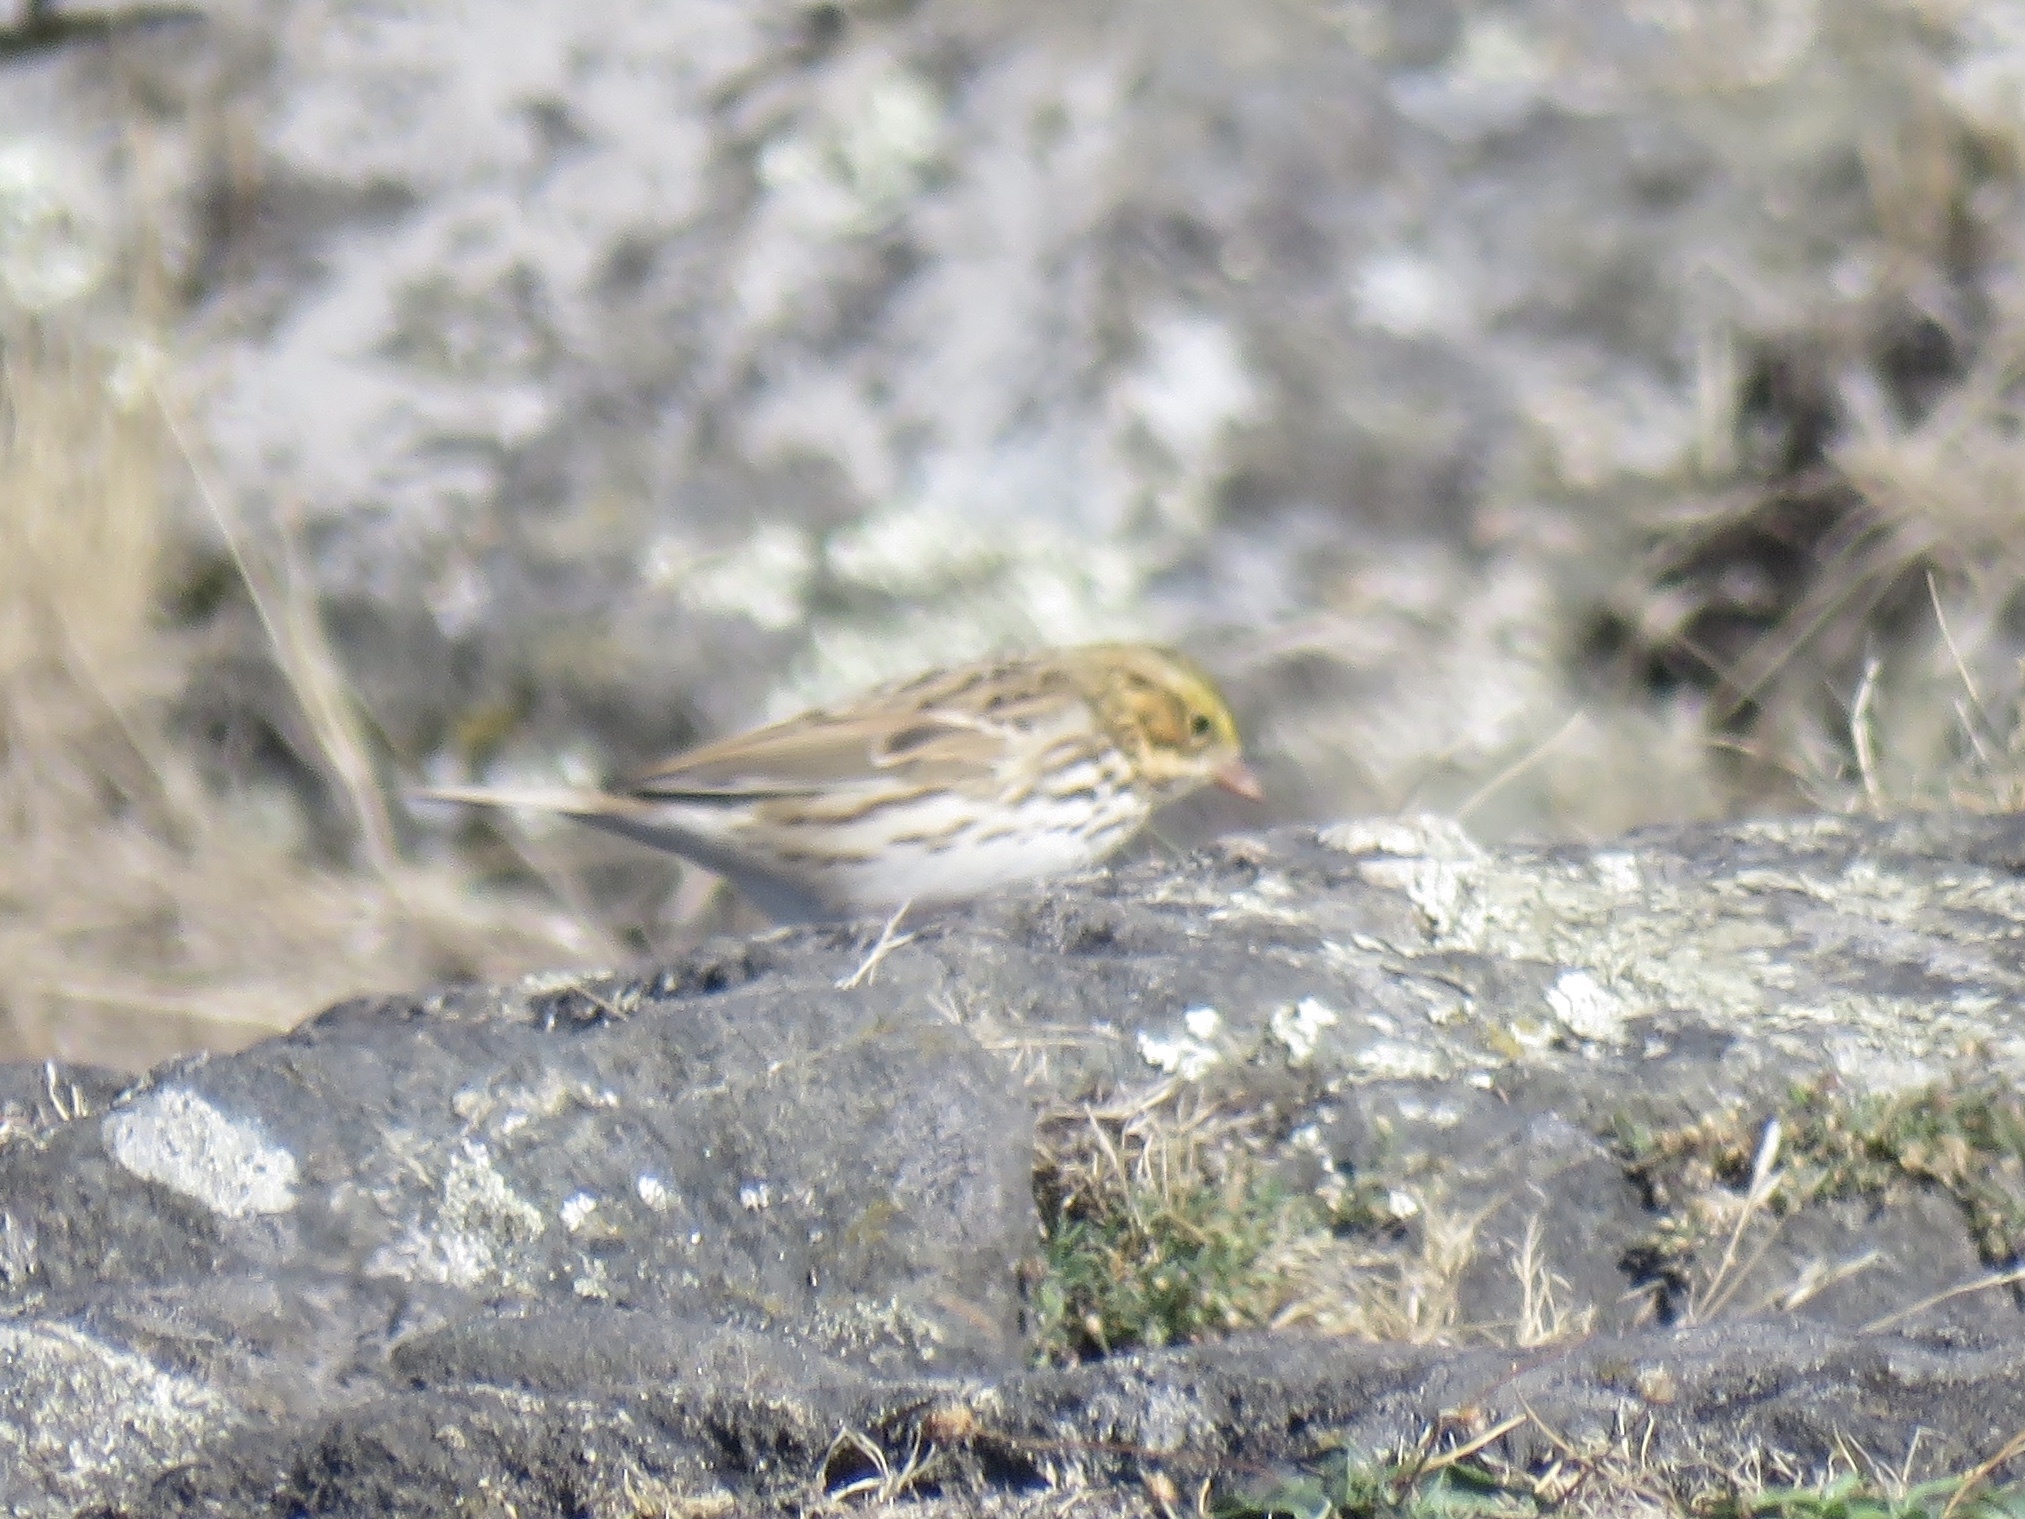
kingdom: Animalia
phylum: Chordata
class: Aves
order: Passeriformes
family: Passerellidae
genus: Passerculus
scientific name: Passerculus sandwichensis
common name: Savannah sparrow
